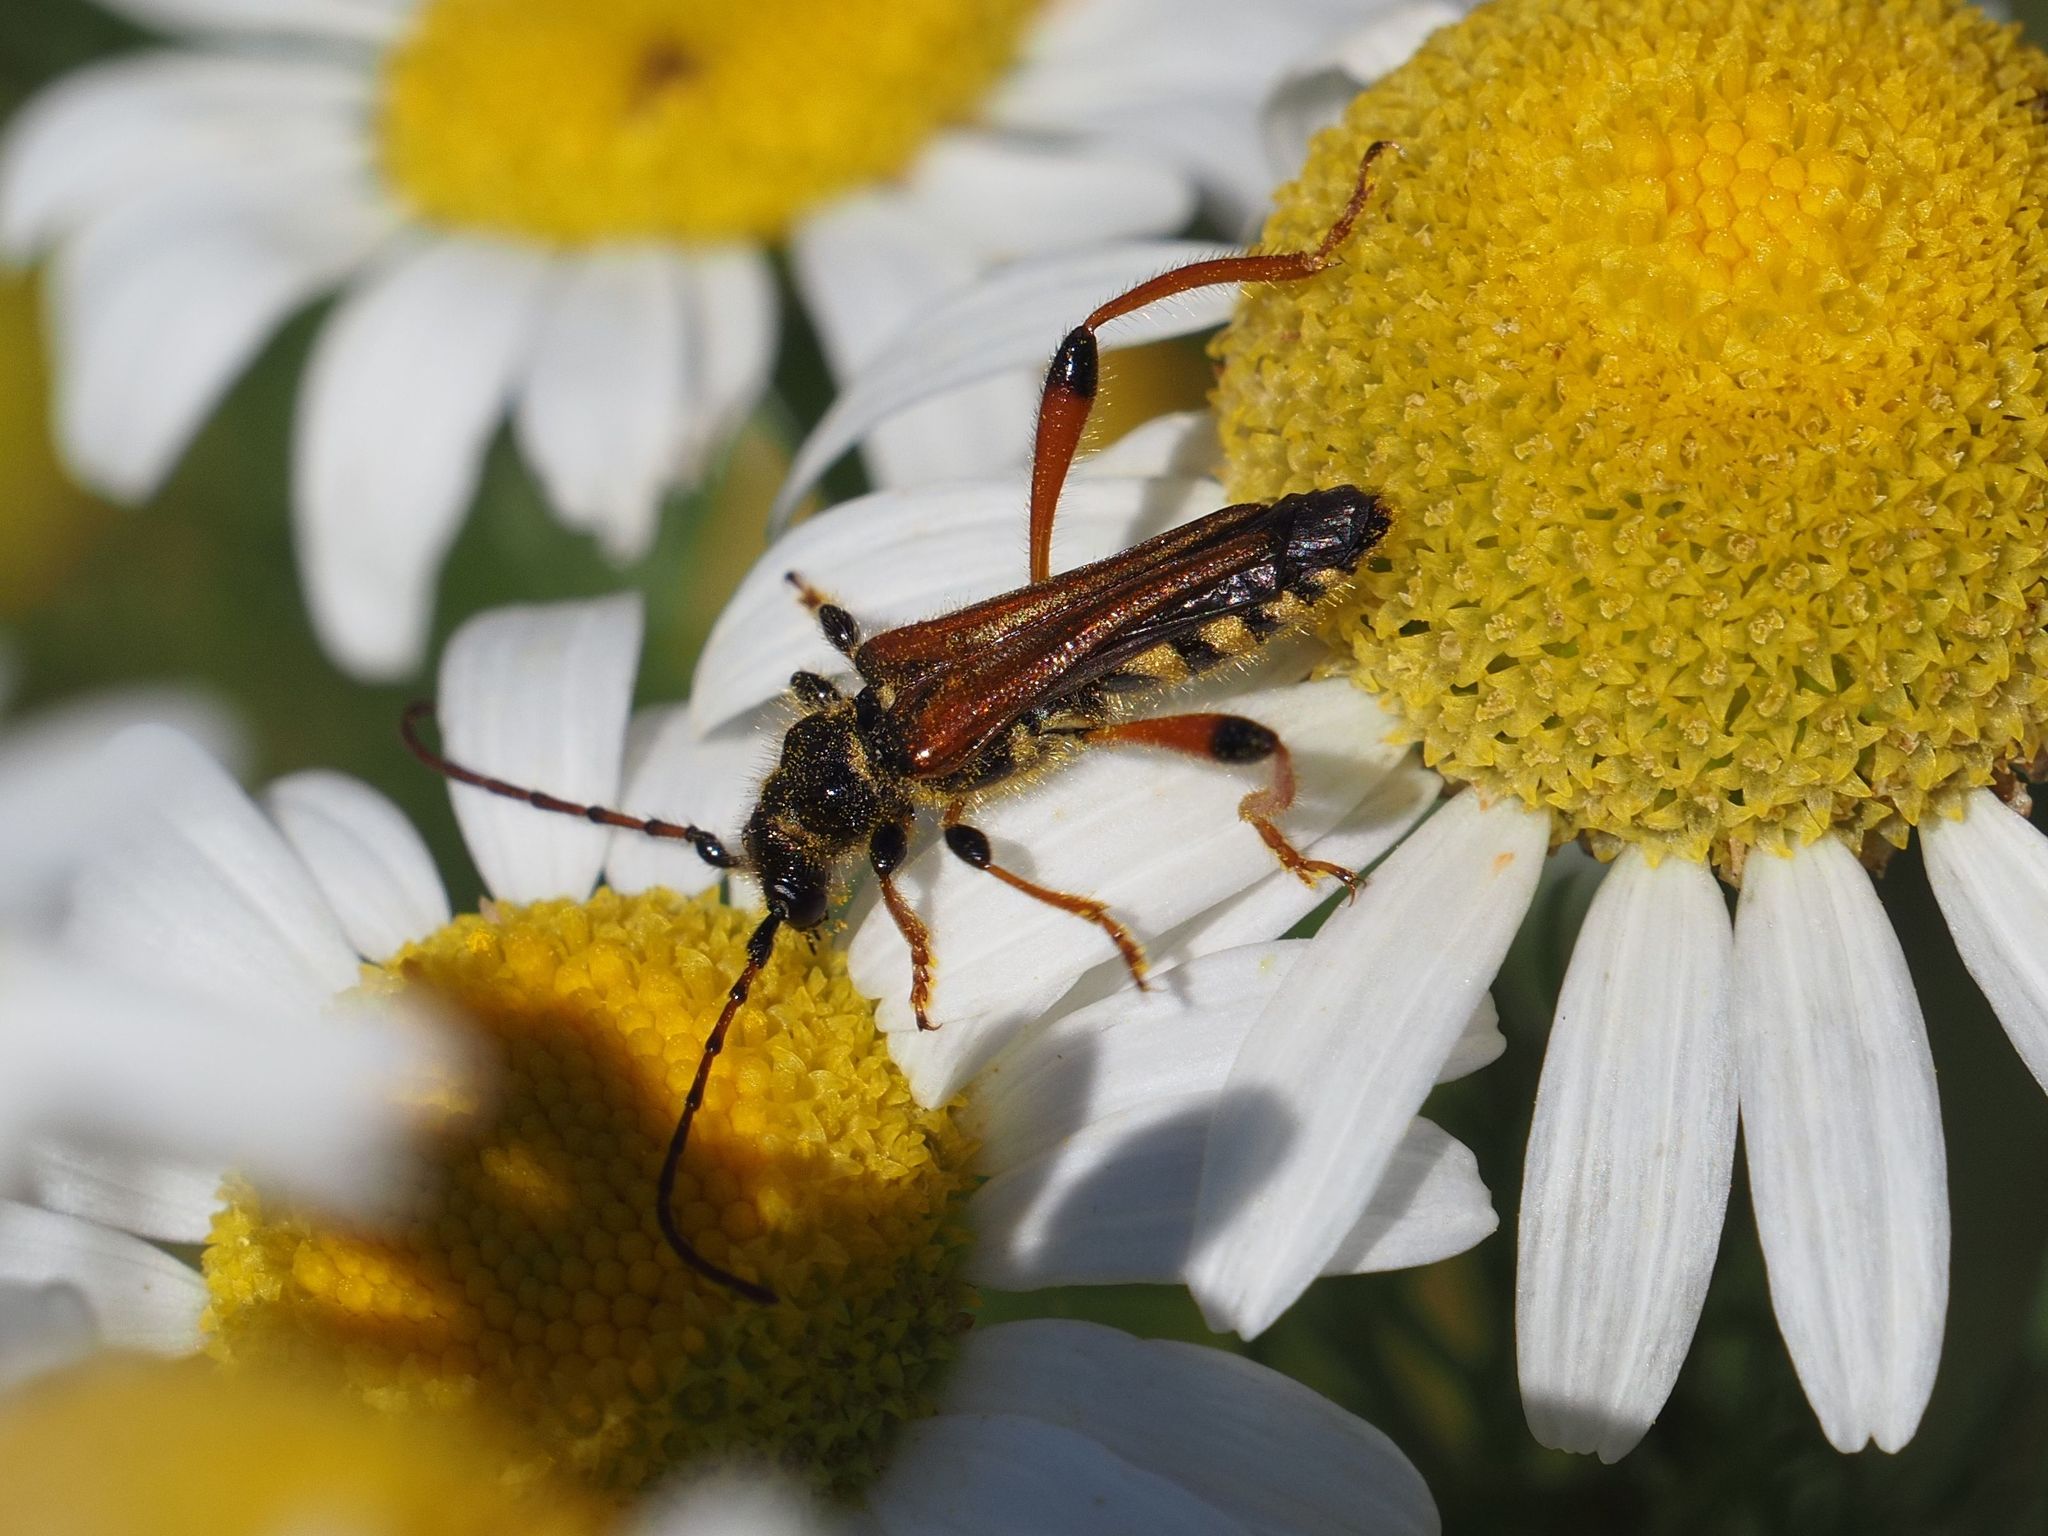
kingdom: Animalia
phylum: Arthropoda
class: Insecta
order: Coleoptera
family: Cerambycidae
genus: Stenopterus
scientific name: Stenopterus rufus
